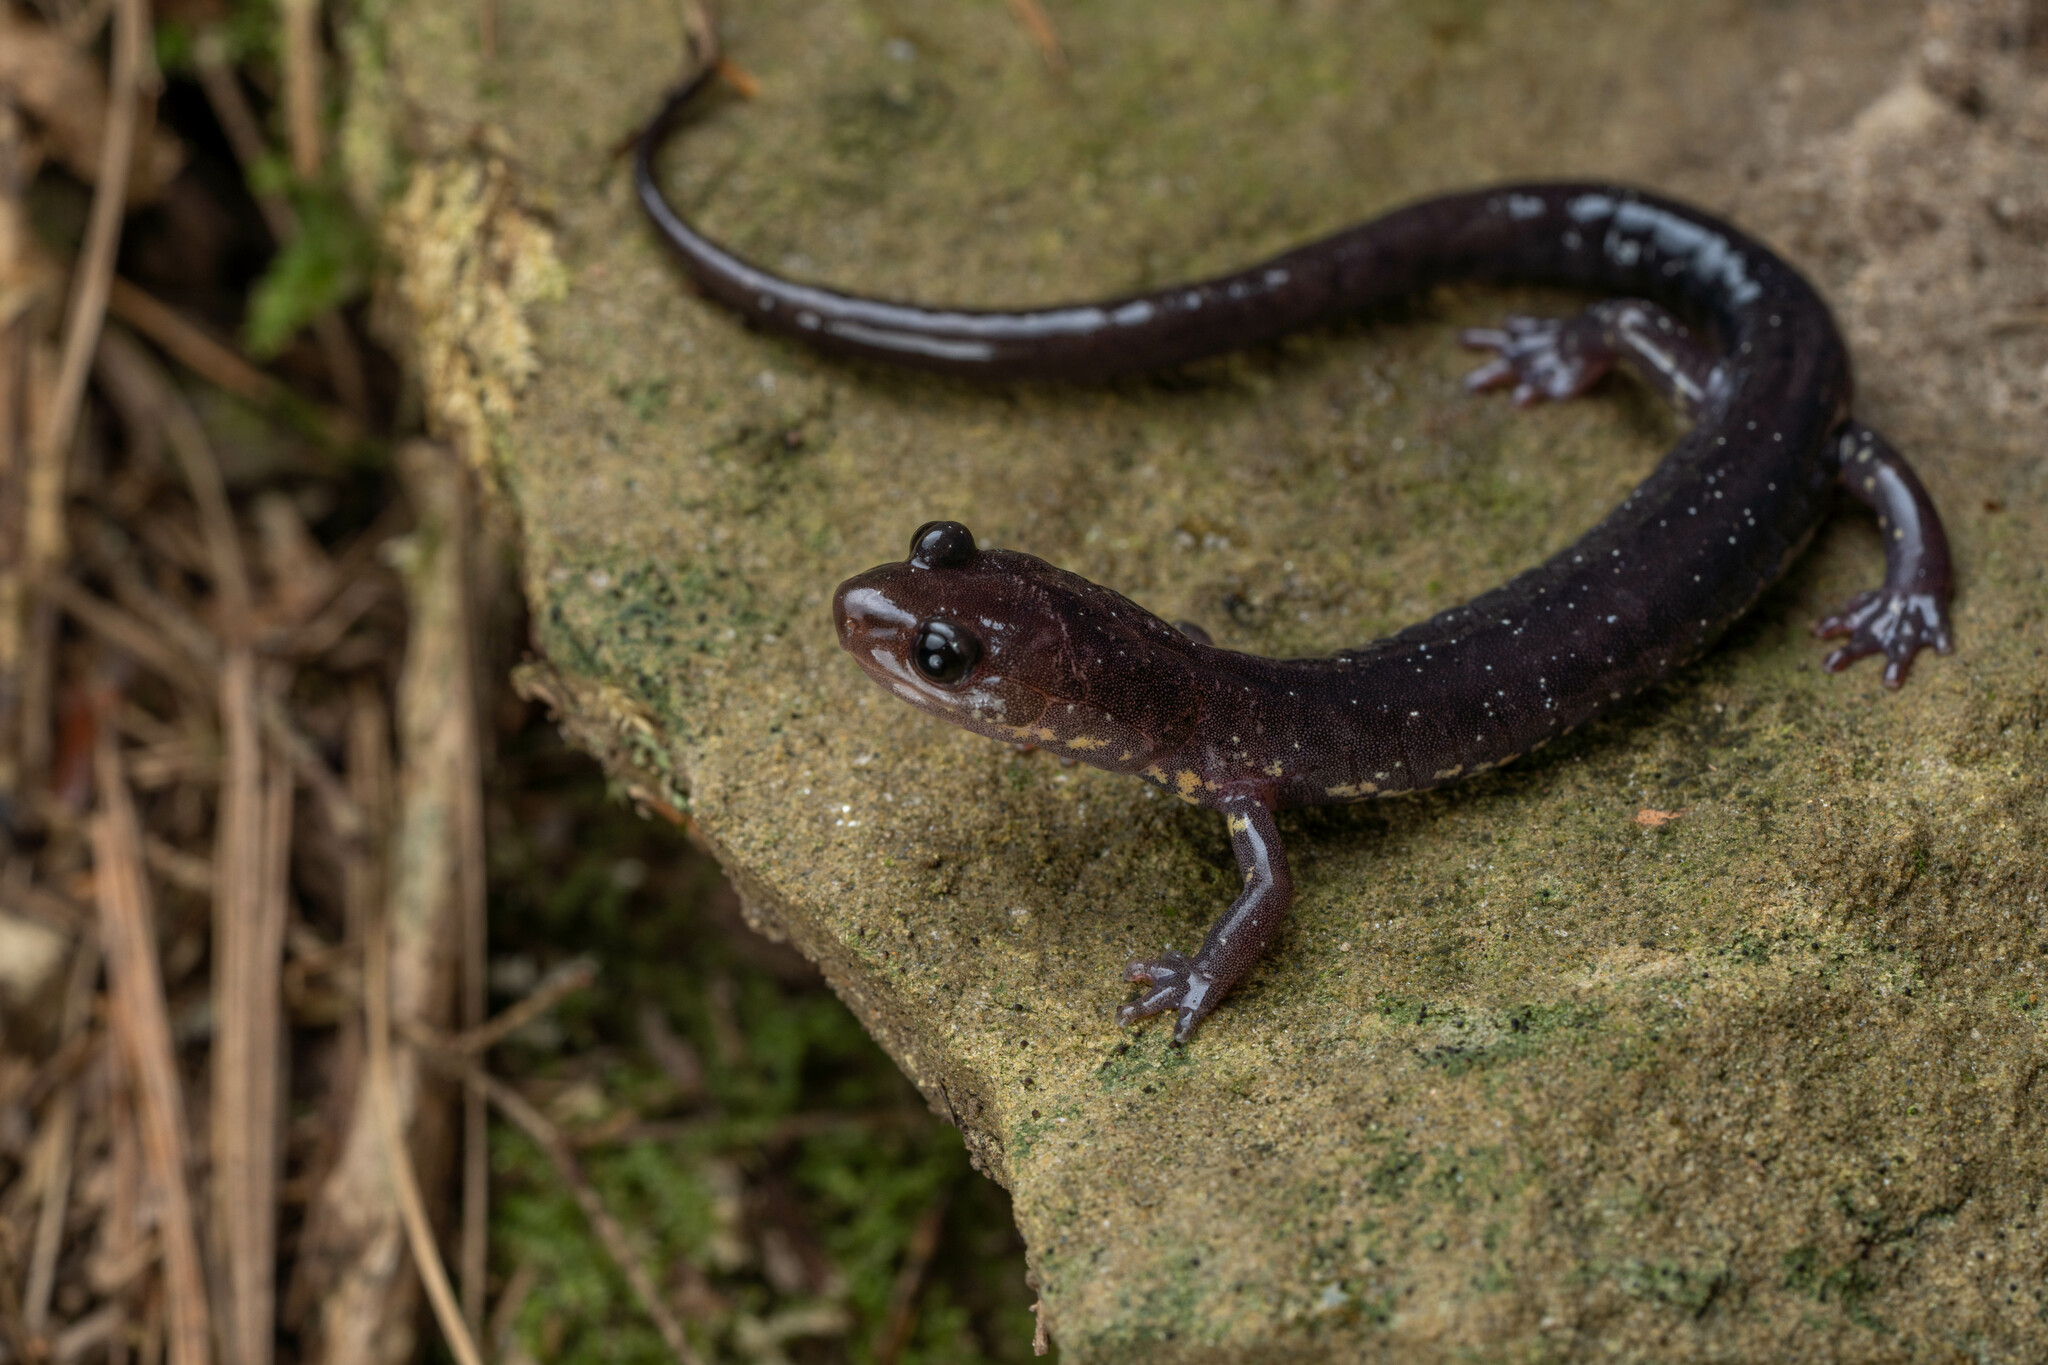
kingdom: Animalia
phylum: Chordata
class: Amphibia
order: Caudata
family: Plethodontidae
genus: Plethodon
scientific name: Plethodon wehrlei
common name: Wehrle's salamander
